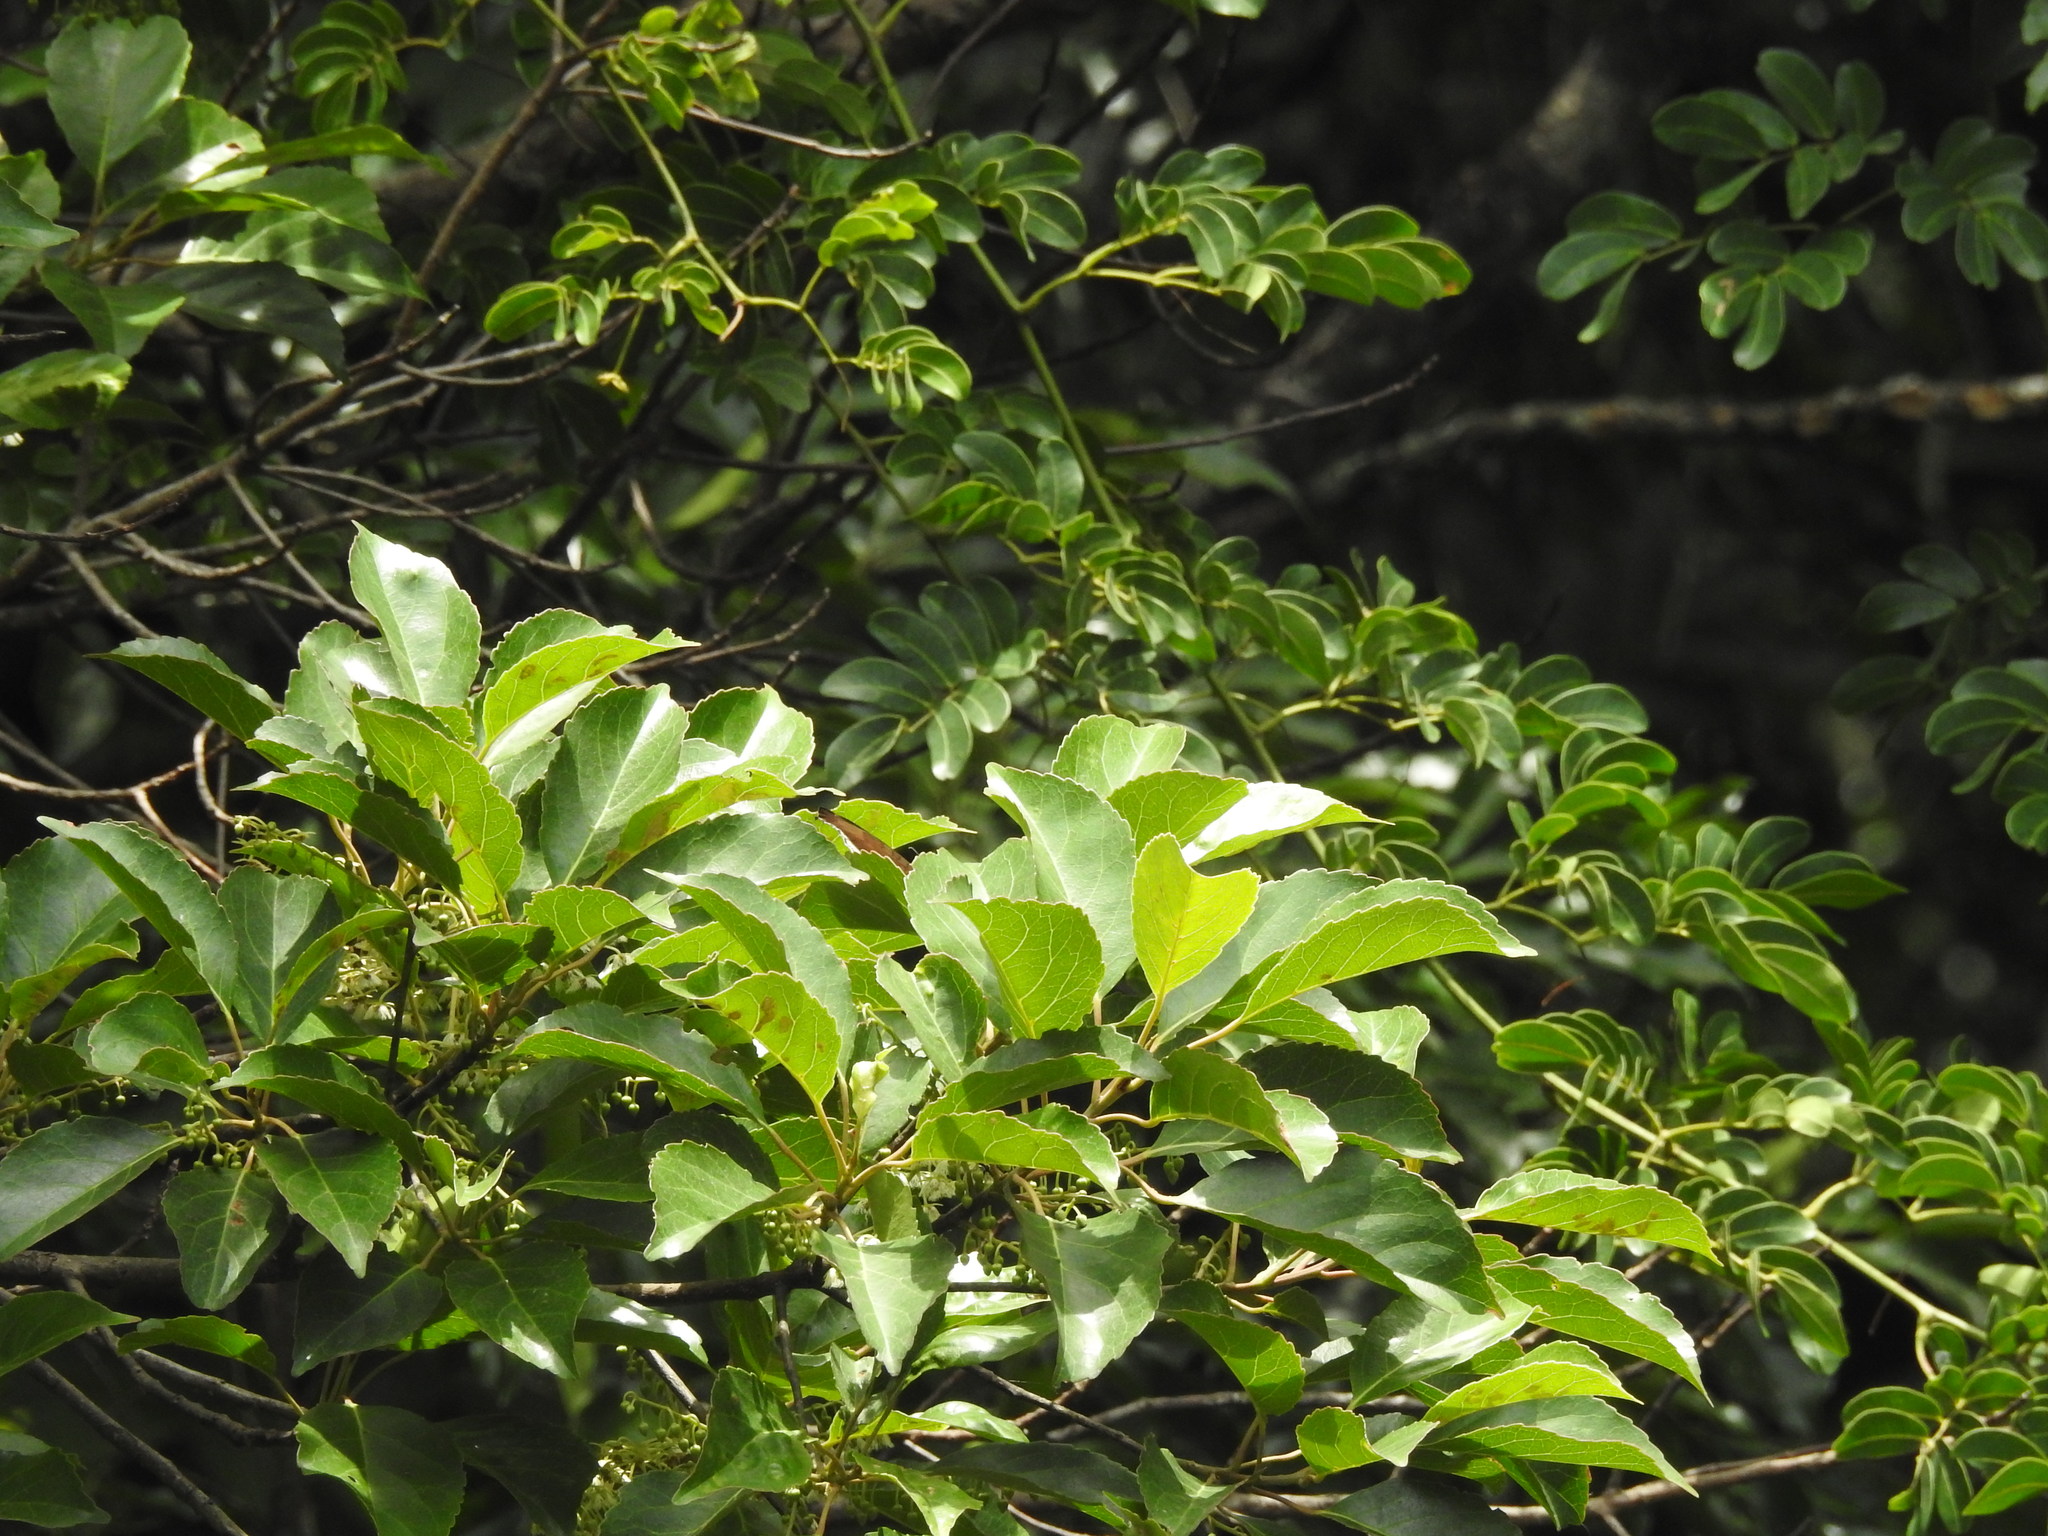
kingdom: Animalia
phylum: Arthropoda
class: Insecta
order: Lepidoptera
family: Nymphalidae
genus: Tanaecia
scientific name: Tanaecia lepidea
